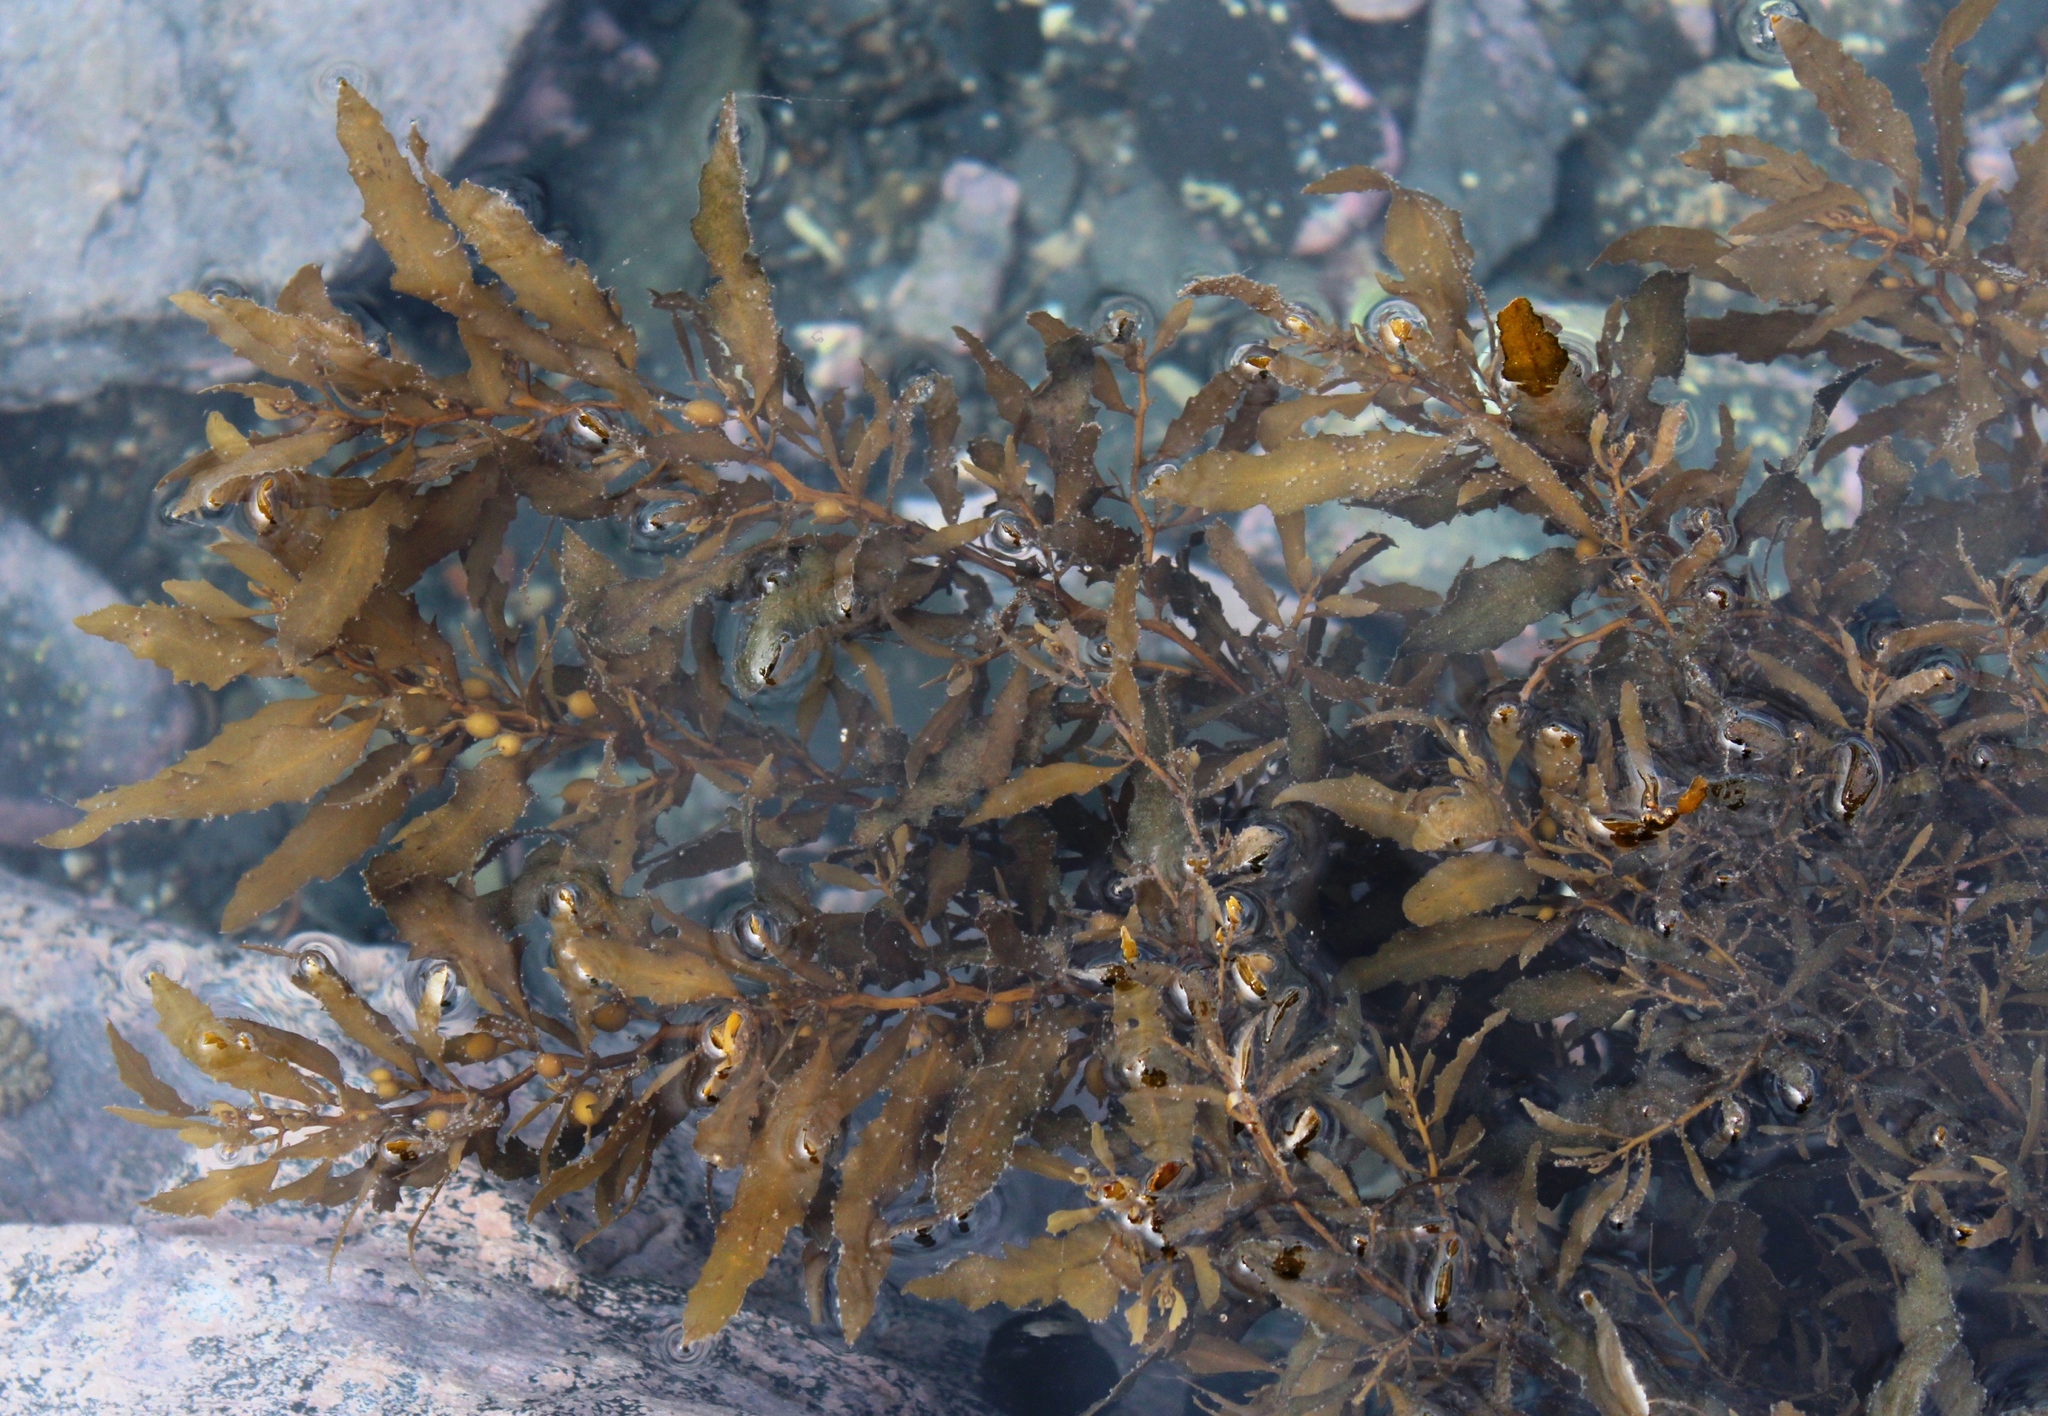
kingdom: Chromista
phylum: Ochrophyta
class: Phaeophyceae
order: Fucales
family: Sargassaceae
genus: Sargassum
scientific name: Sargassum incisifolium
